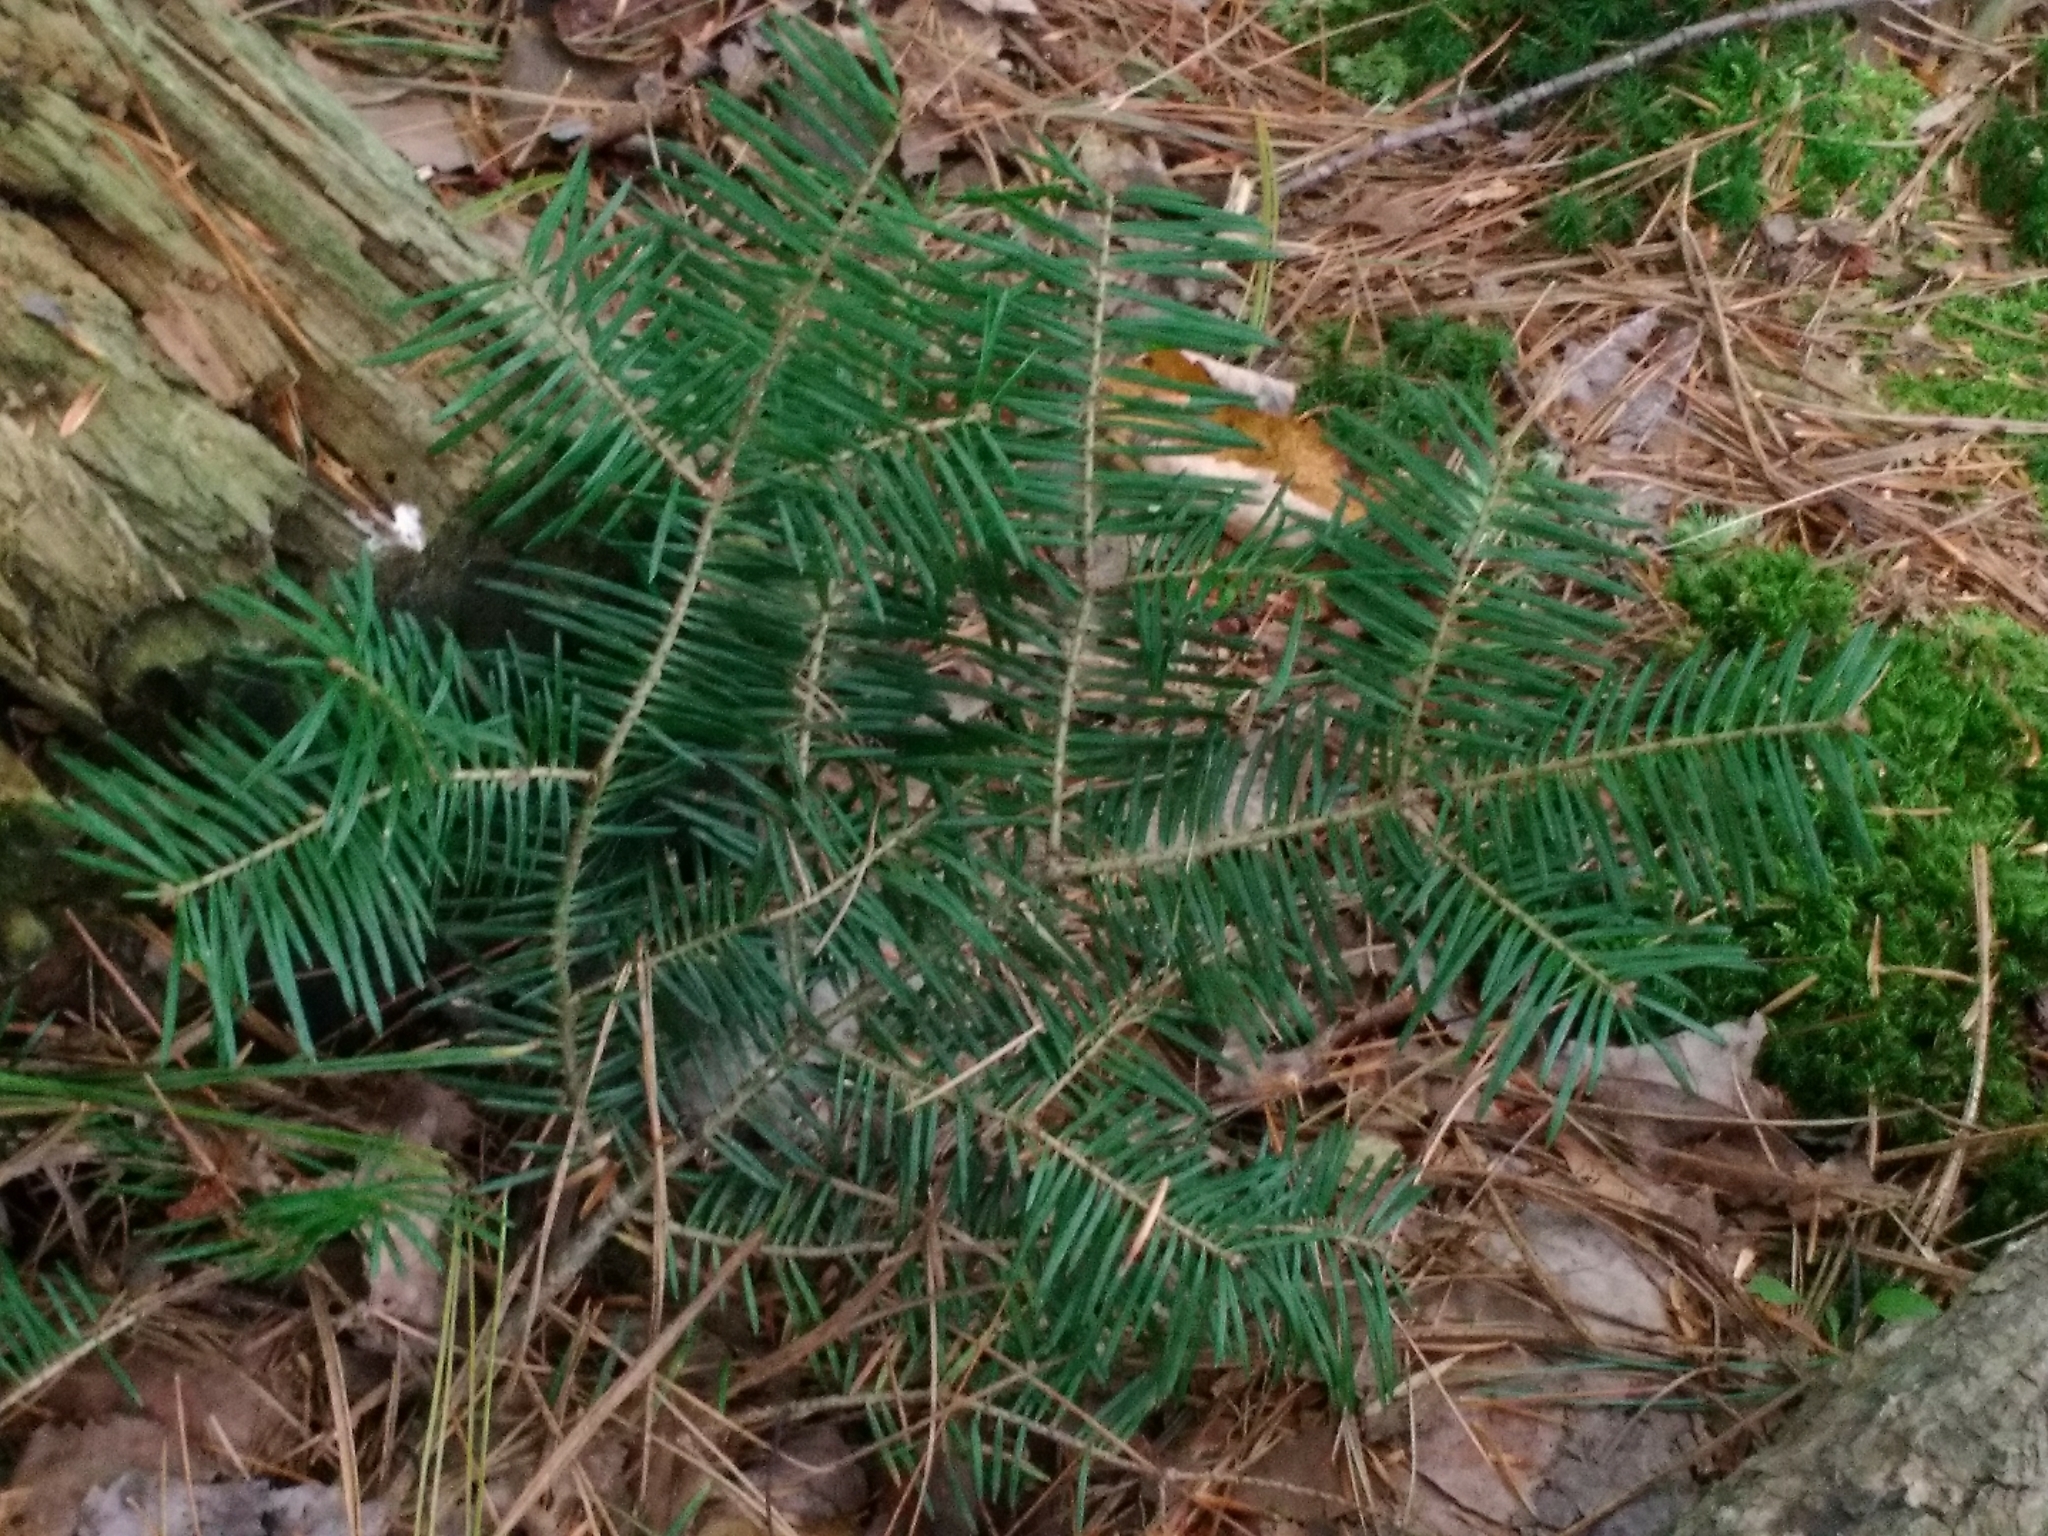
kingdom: Plantae
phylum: Tracheophyta
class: Pinopsida
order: Pinales
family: Pinaceae
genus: Abies
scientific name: Abies balsamea
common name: Balsam fir
